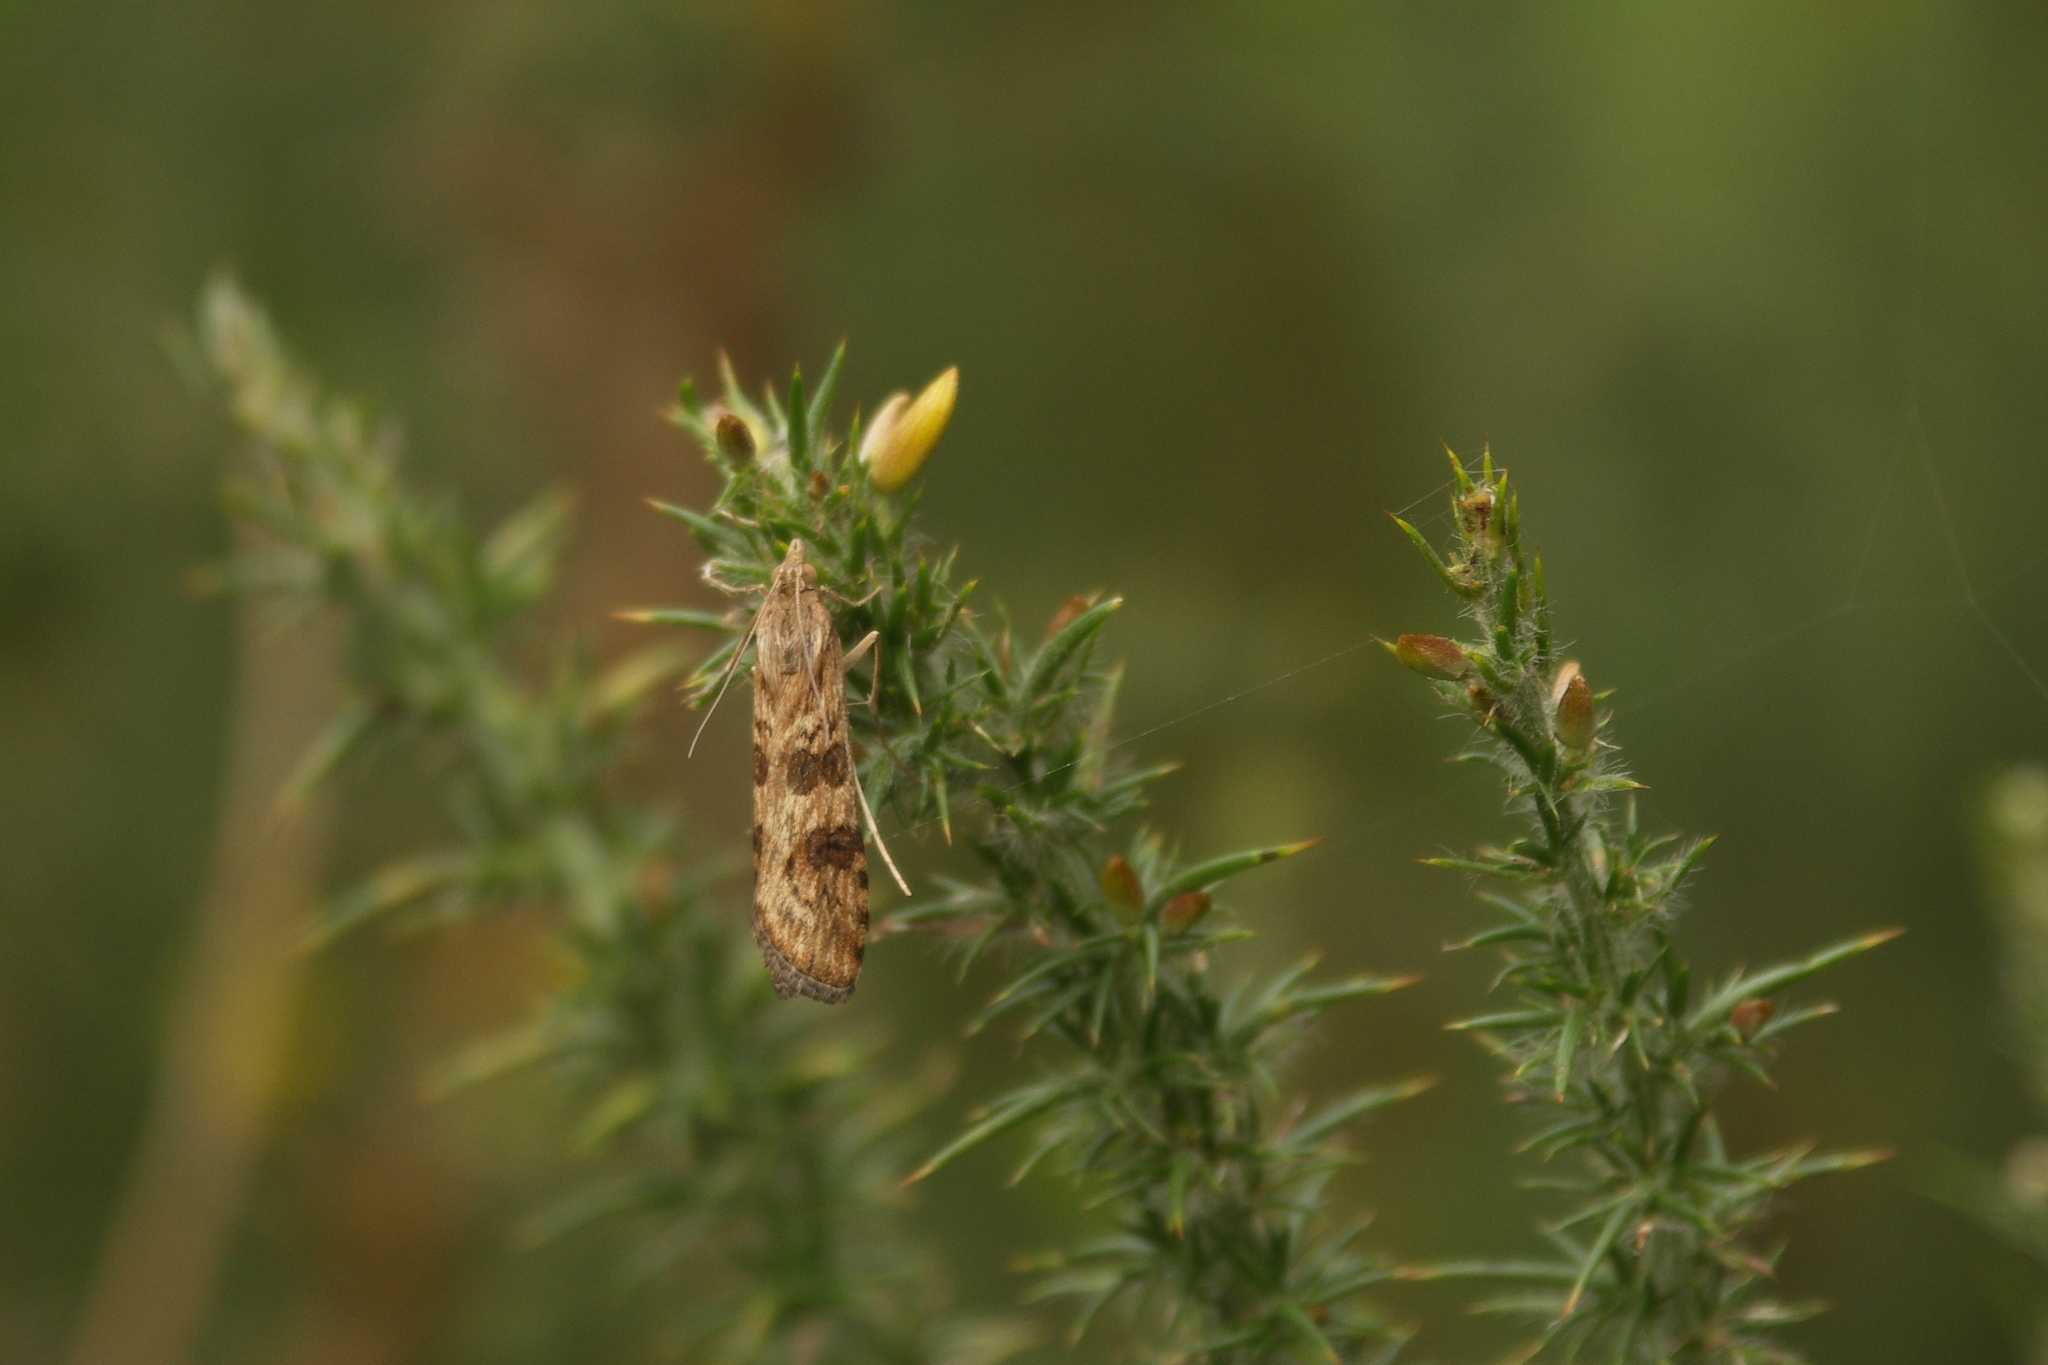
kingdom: Animalia
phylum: Arthropoda
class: Insecta
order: Lepidoptera
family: Crambidae
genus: Nomophila
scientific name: Nomophila noctuella
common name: Rush veneer
